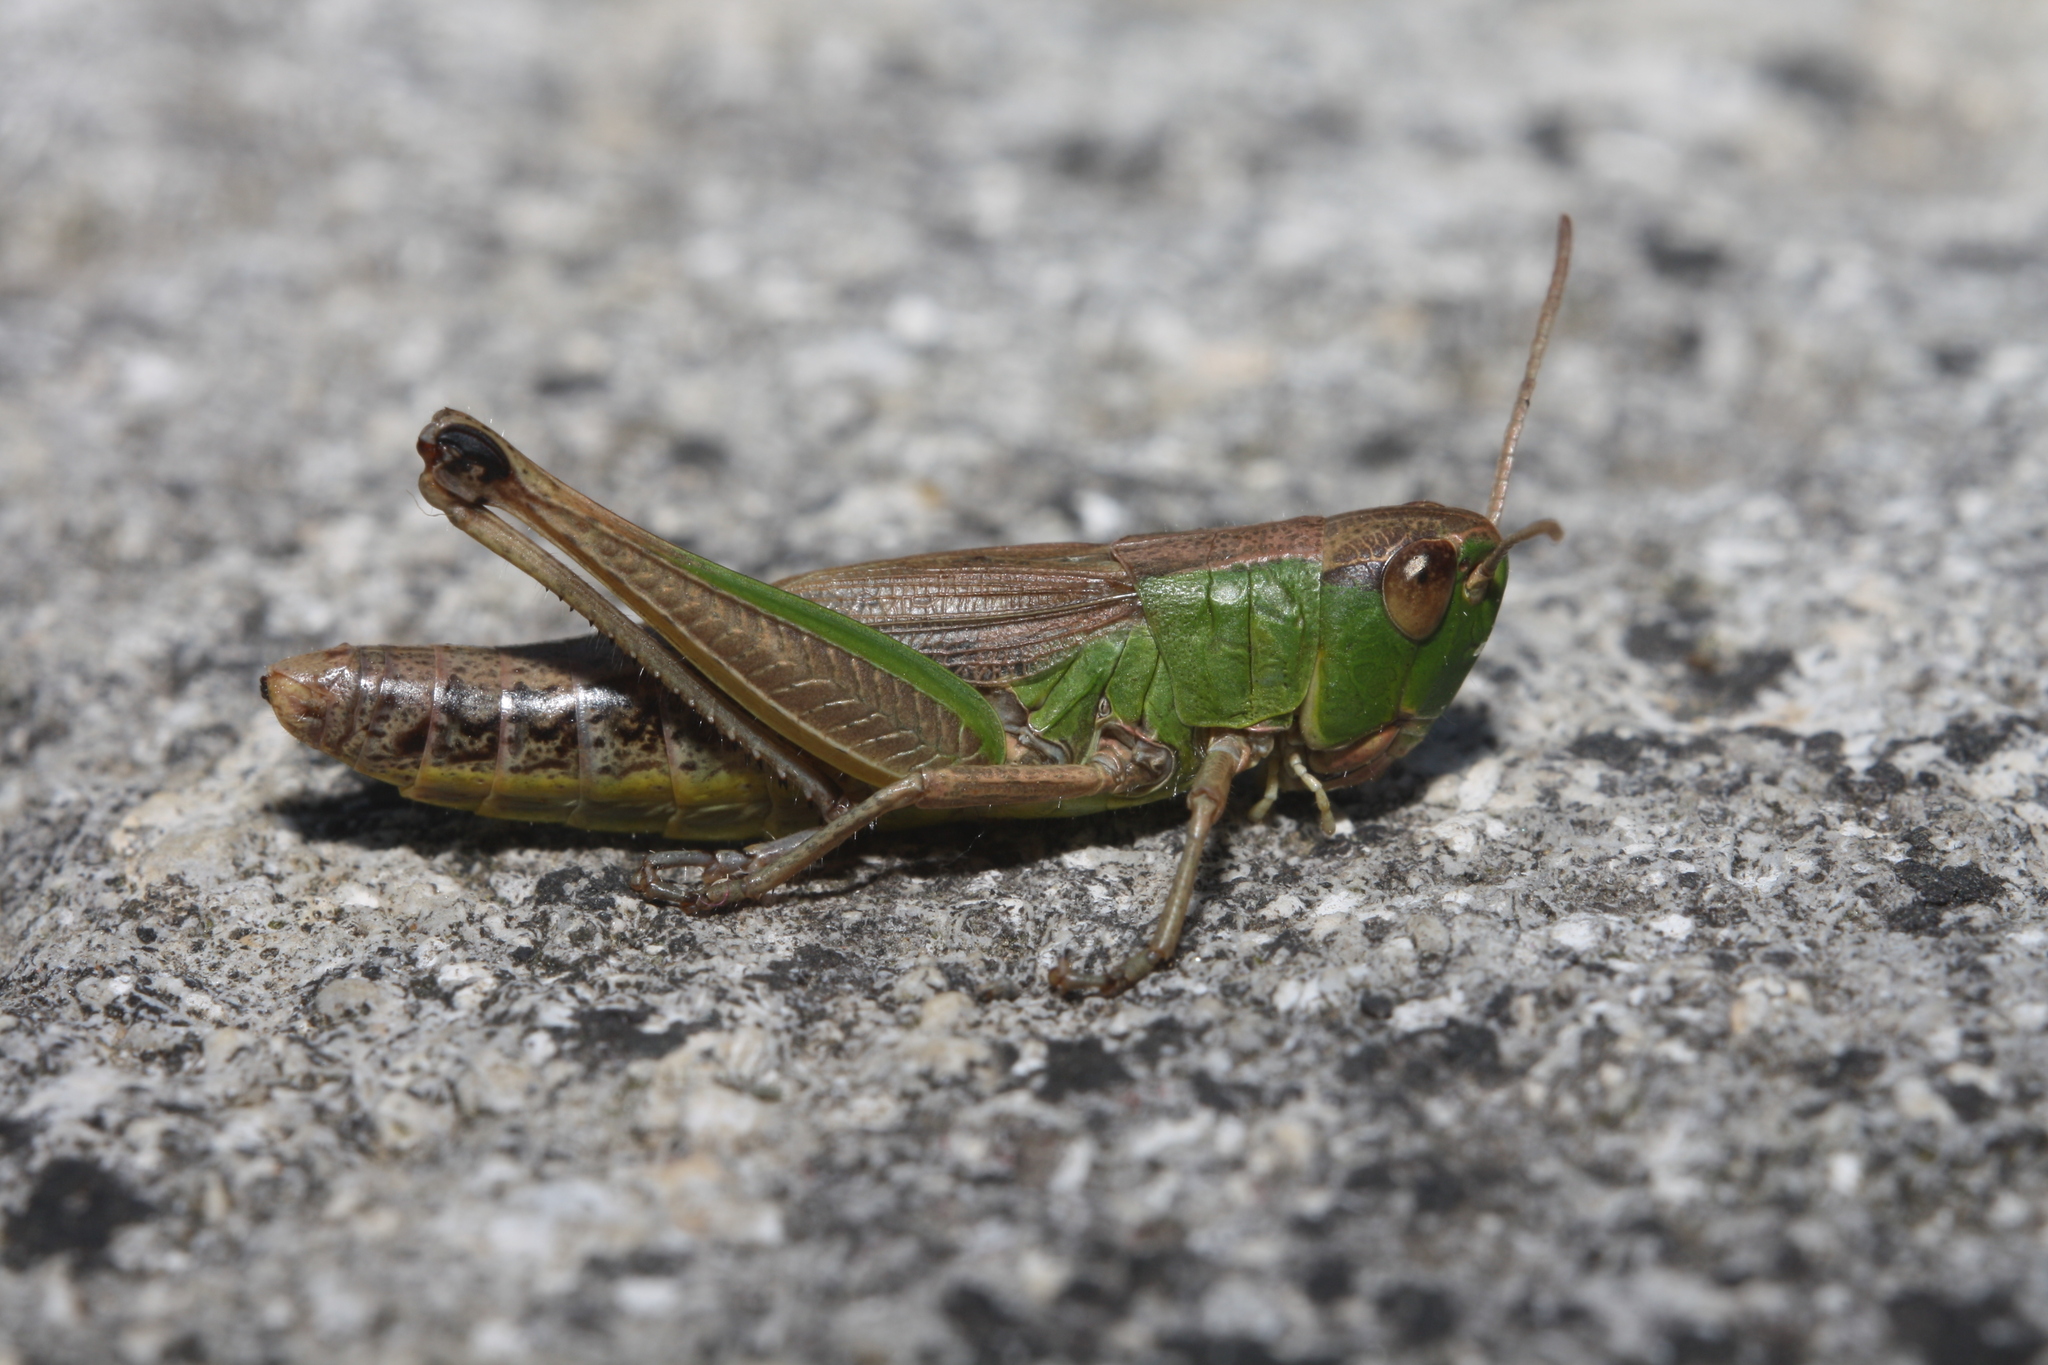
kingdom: Animalia
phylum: Arthropoda
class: Insecta
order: Orthoptera
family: Acrididae
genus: Pseudochorthippus
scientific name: Pseudochorthippus parallelus
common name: Meadow grasshopper
